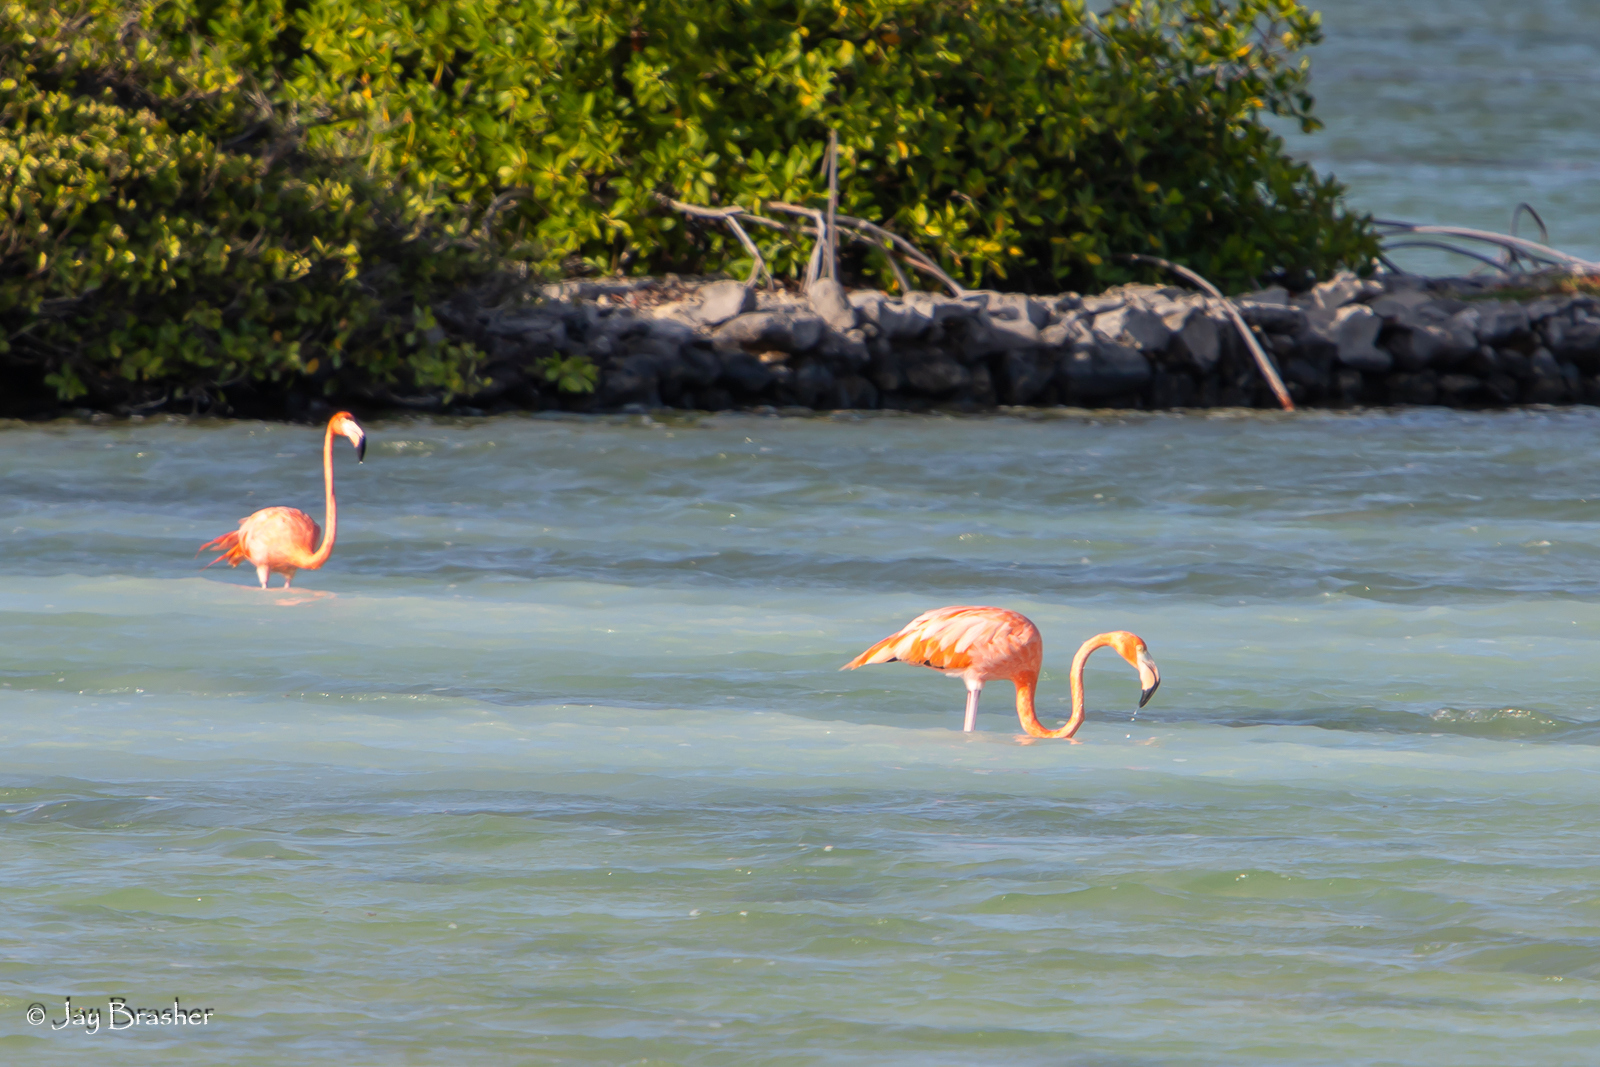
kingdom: Animalia
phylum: Chordata
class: Aves
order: Phoenicopteriformes
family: Phoenicopteridae
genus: Phoenicopterus
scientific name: Phoenicopterus ruber
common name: American flamingo
